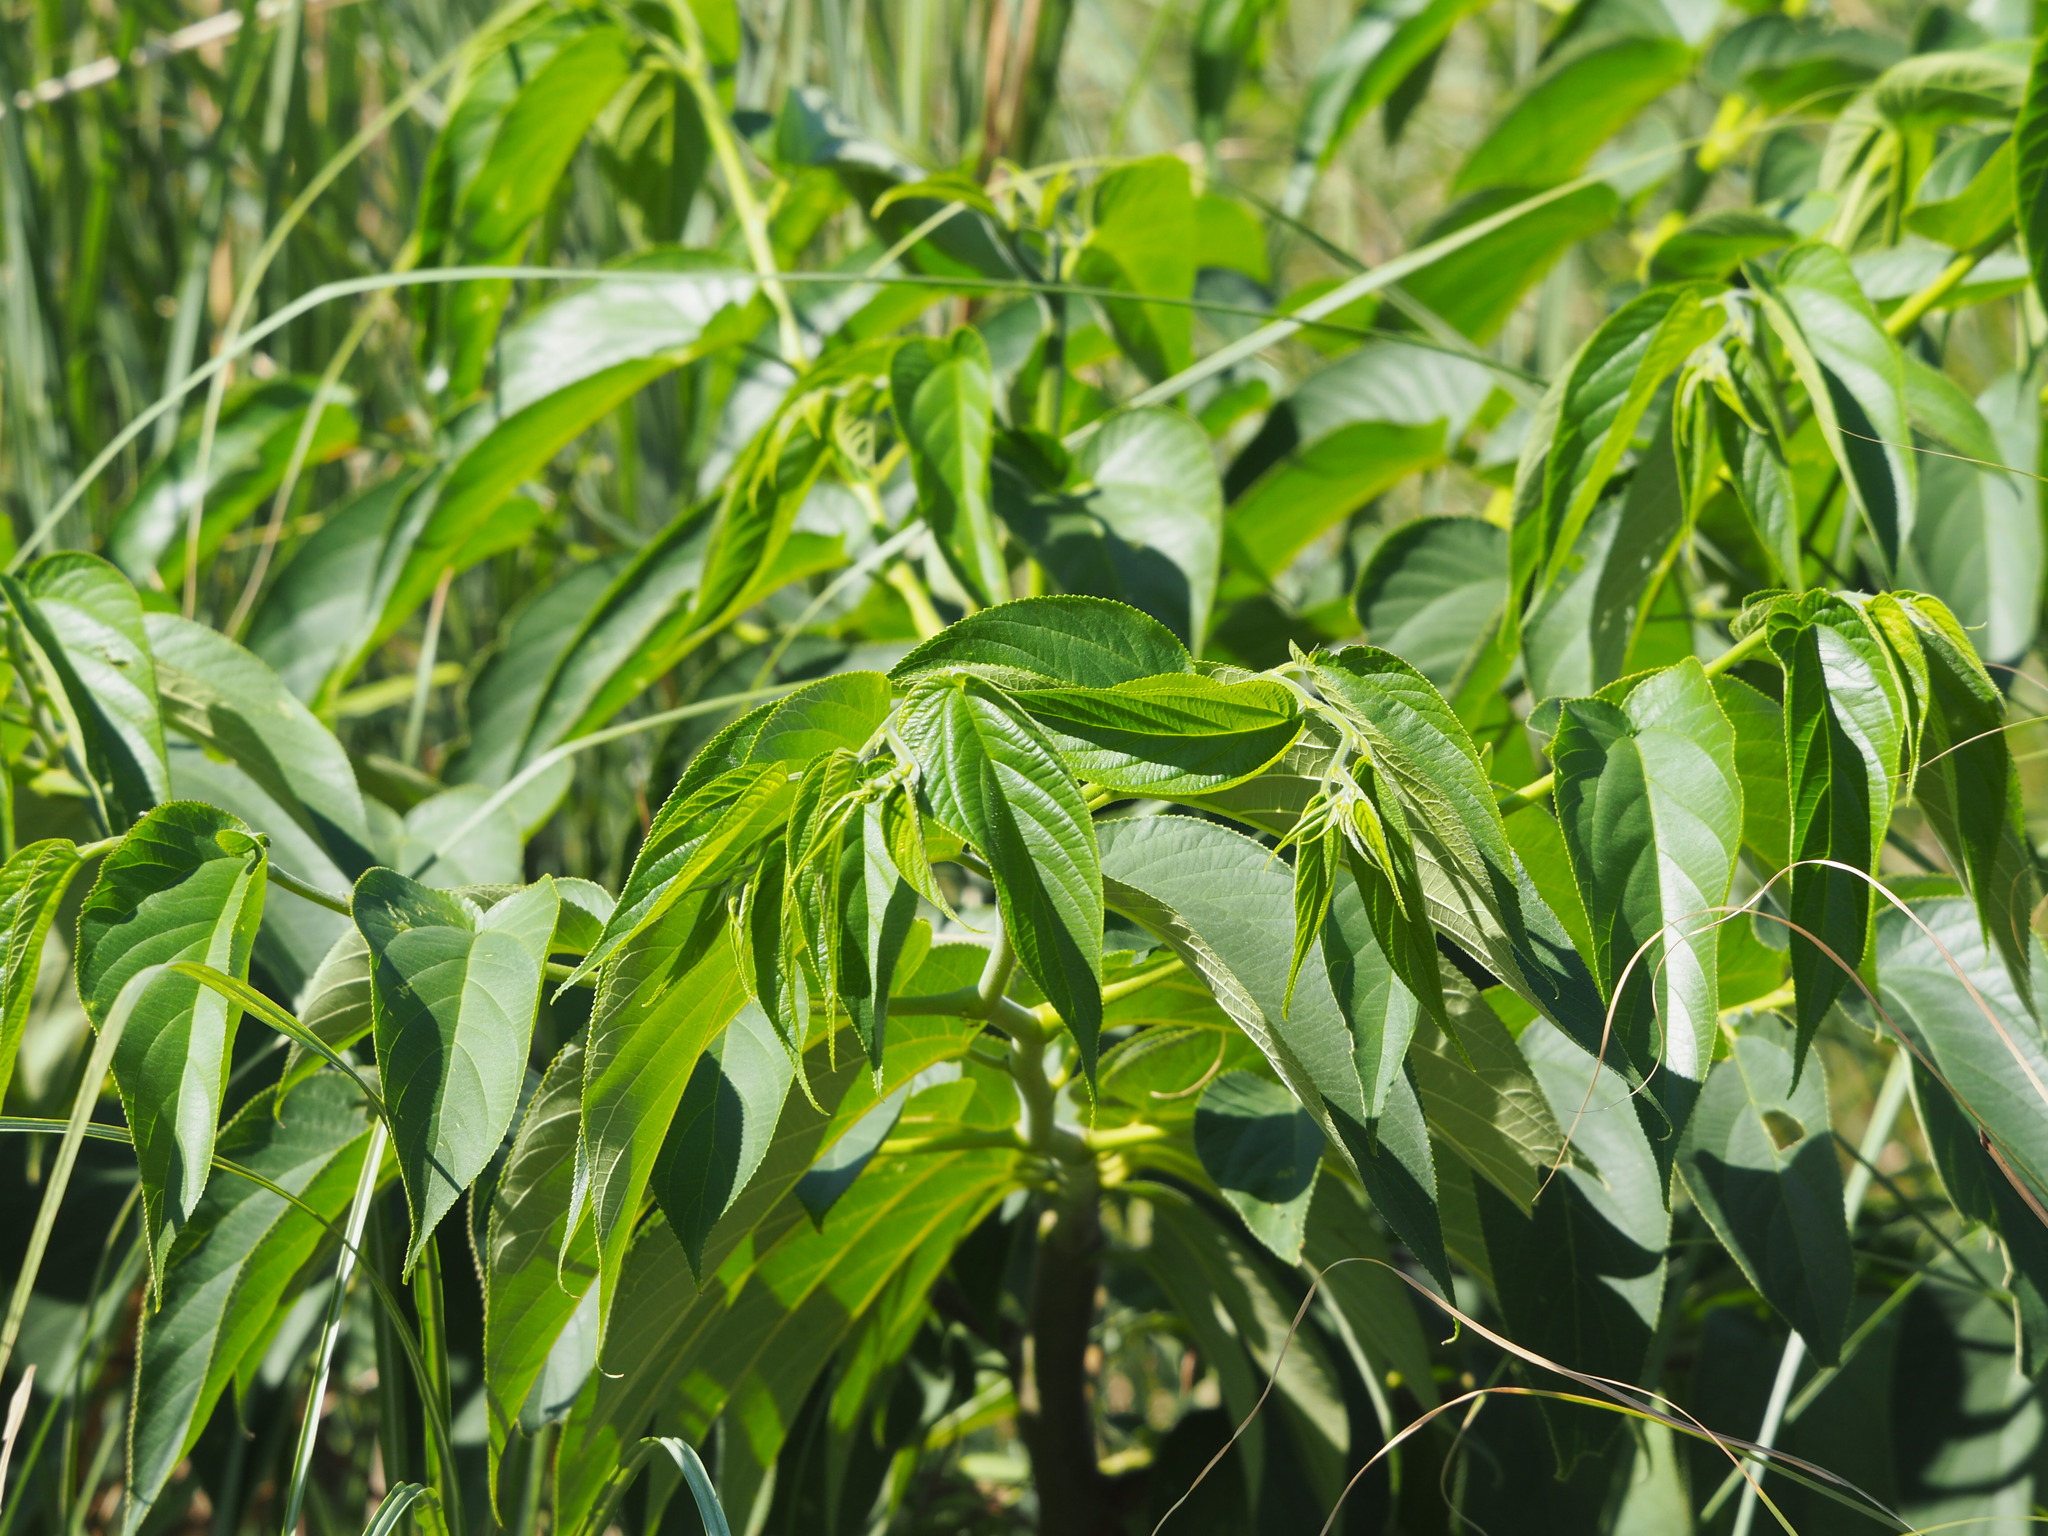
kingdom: Plantae
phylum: Tracheophyta
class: Magnoliopsida
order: Rosales
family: Cannabaceae
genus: Trema
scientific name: Trema orientale
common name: Indian charcoal tree
